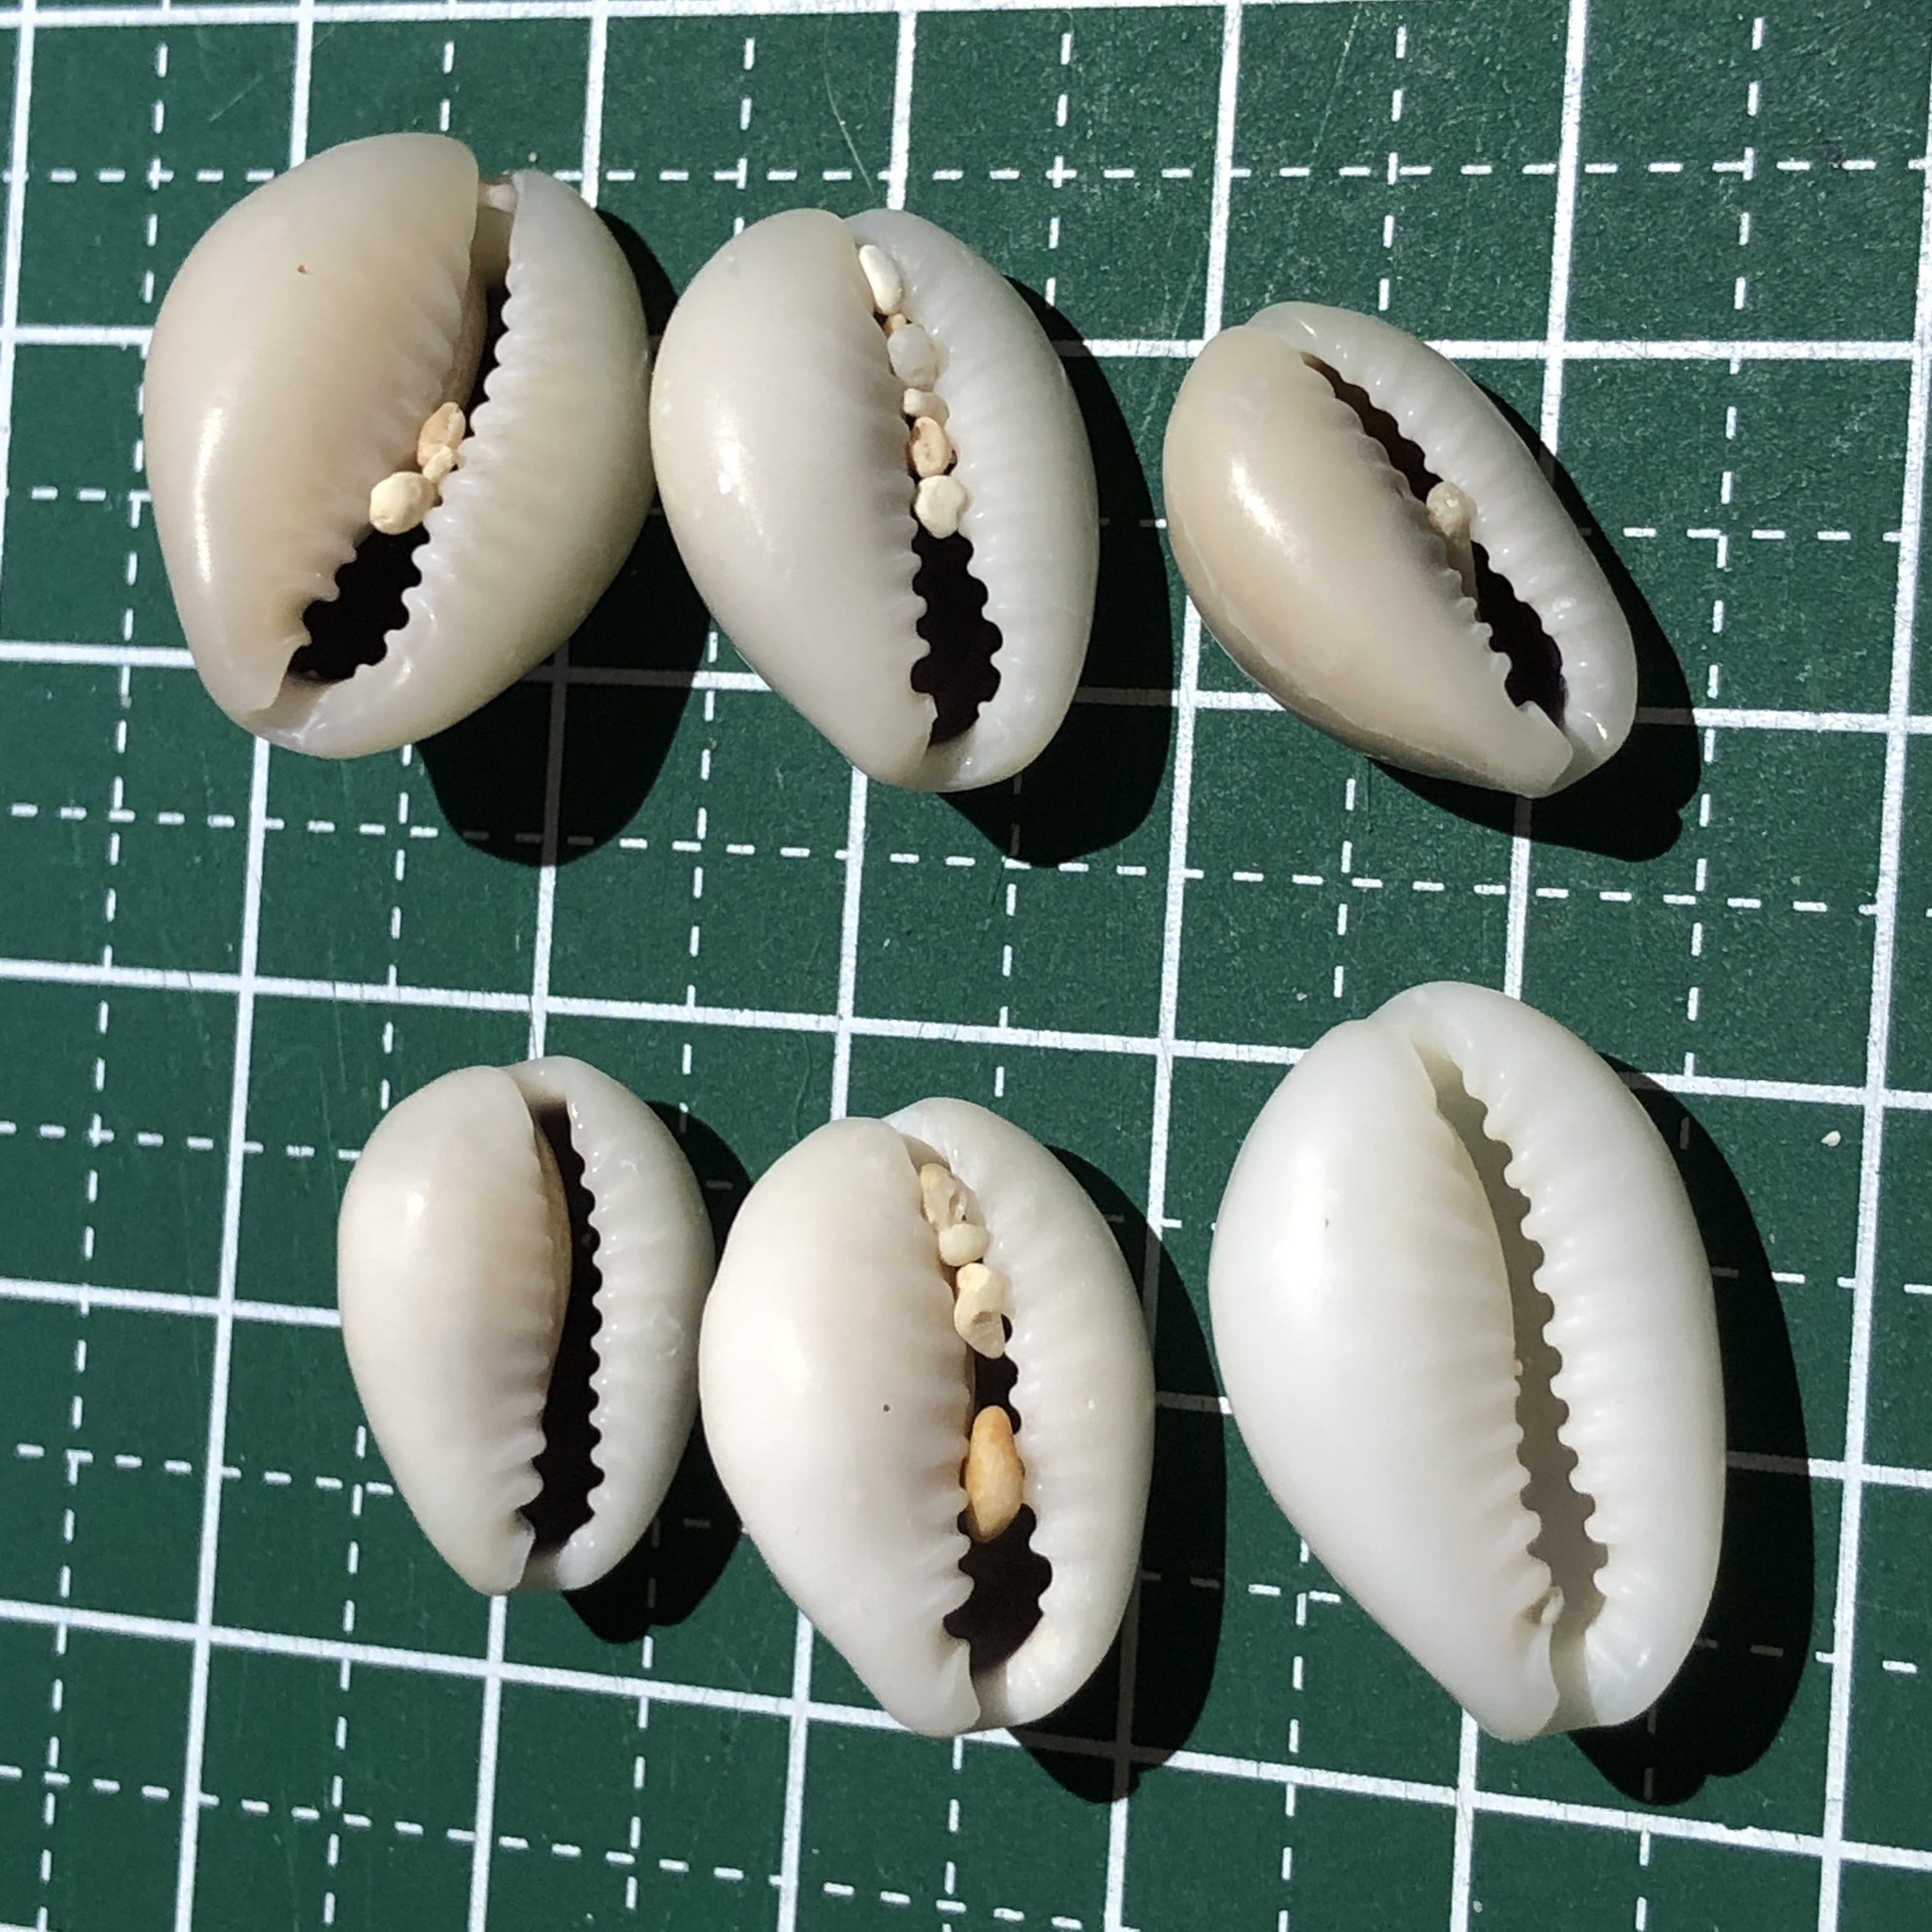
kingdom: Animalia
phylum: Mollusca
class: Gastropoda
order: Littorinimorpha
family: Cypraeidae
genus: Monetaria
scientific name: Monetaria annulus
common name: Ring cowrie
